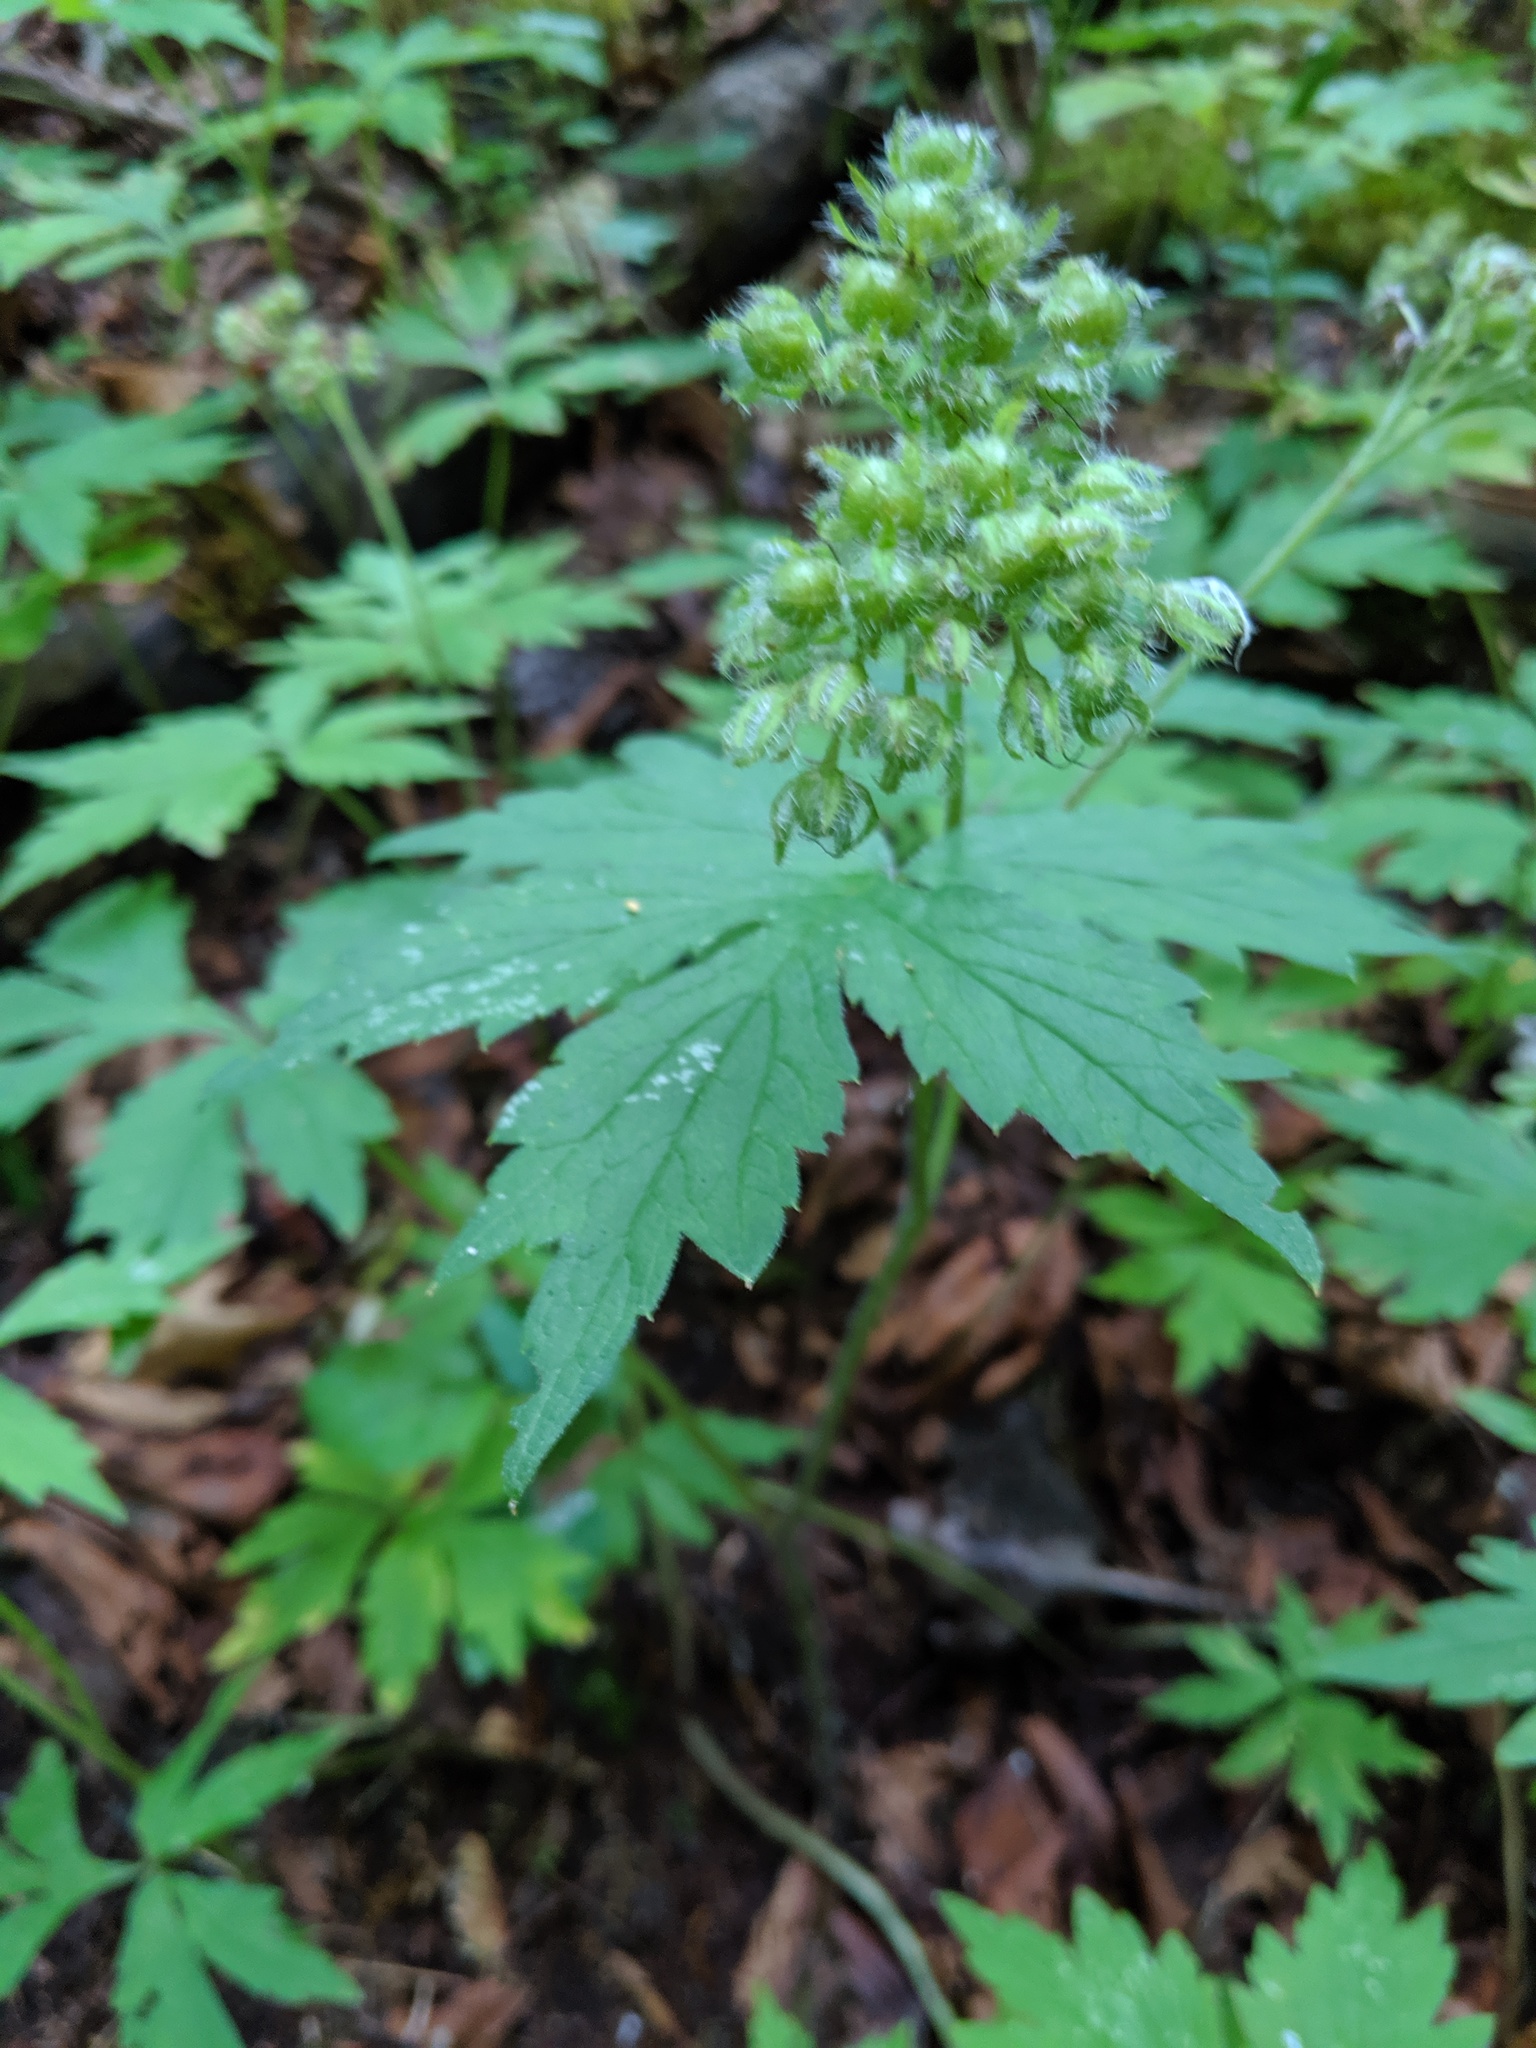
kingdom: Plantae
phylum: Tracheophyta
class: Magnoliopsida
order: Boraginales
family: Hydrophyllaceae
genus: Hydrophyllum
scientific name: Hydrophyllum tenuipes
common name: Pacific waterleaf
